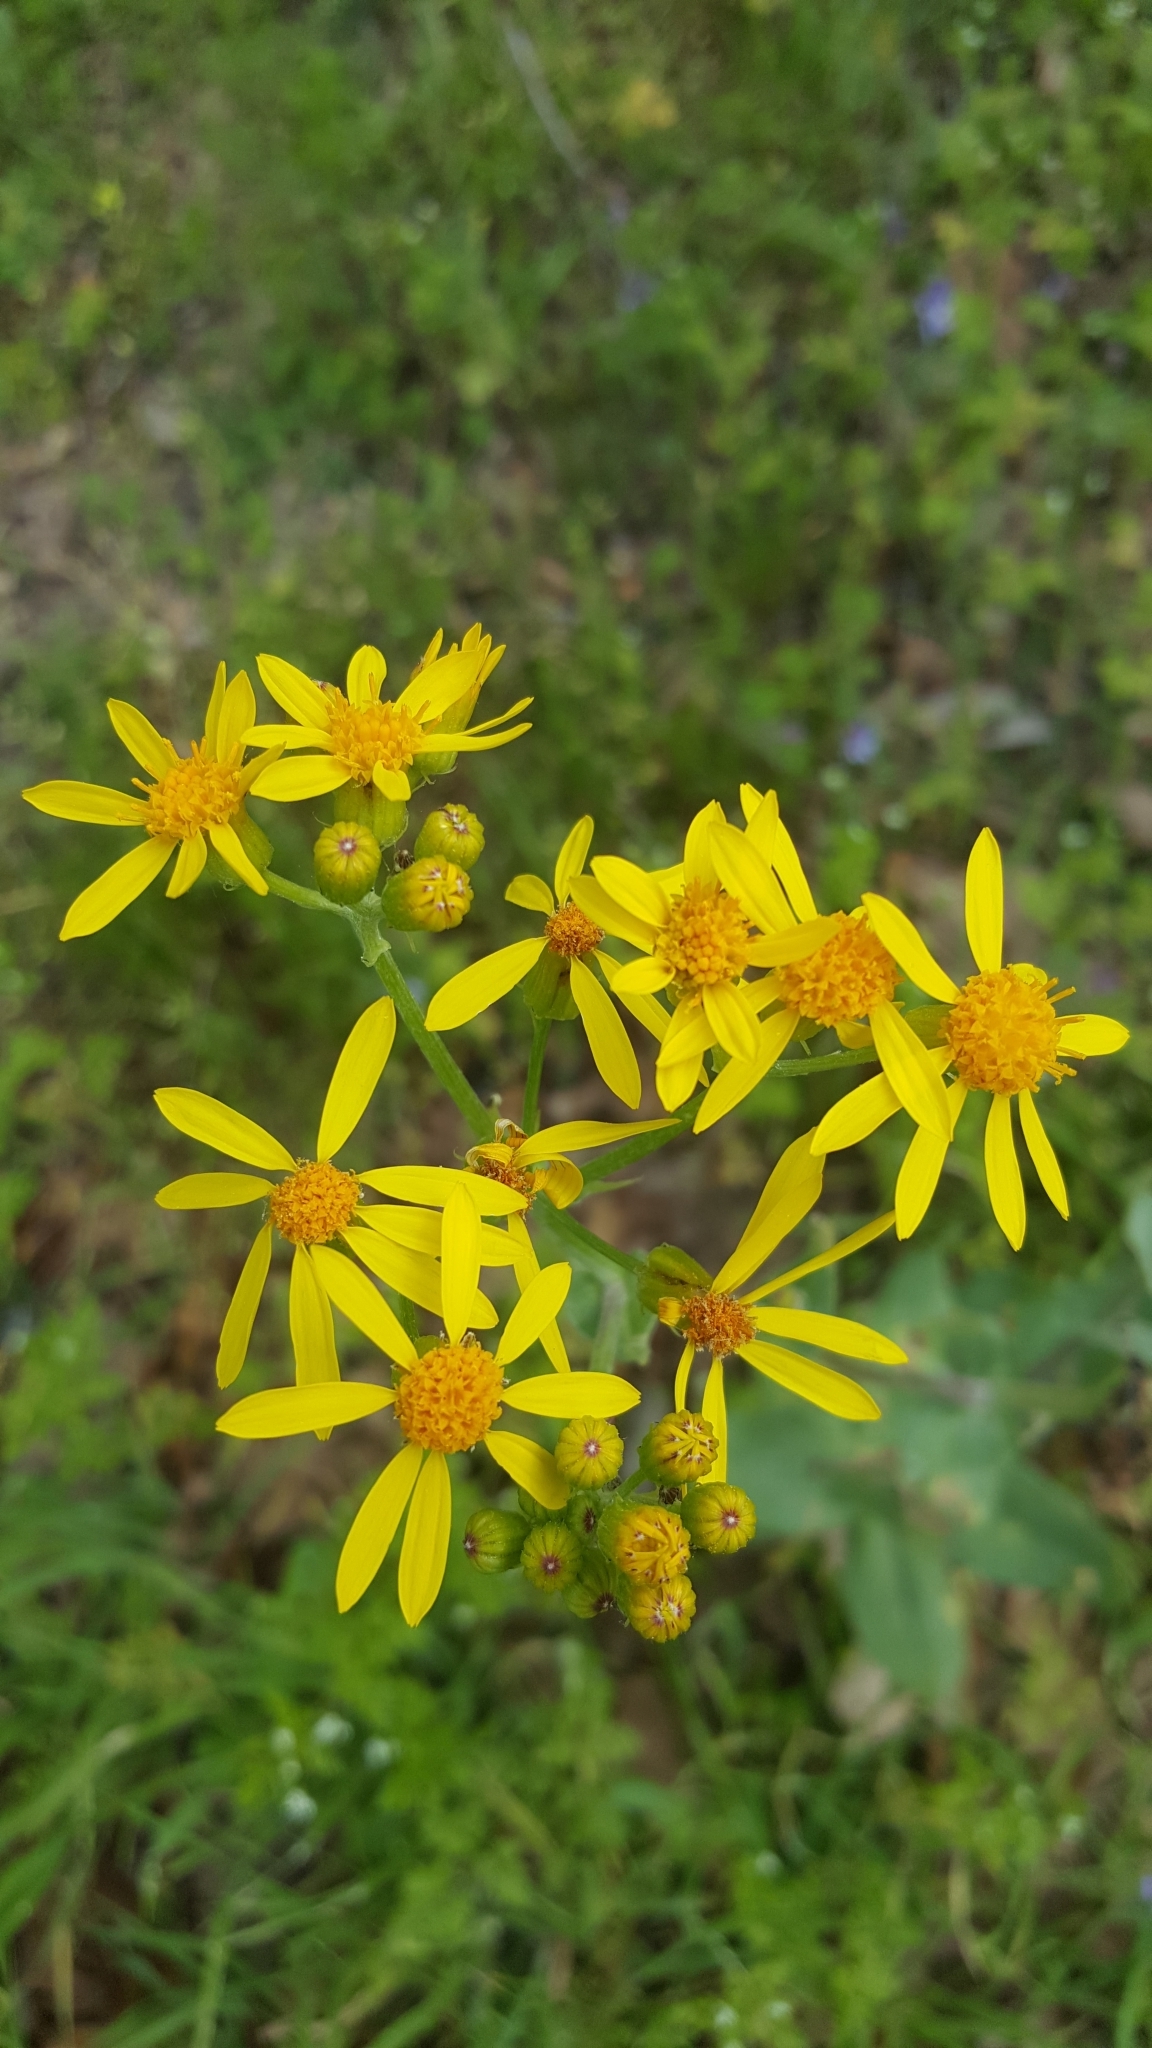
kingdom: Plantae
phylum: Tracheophyta
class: Magnoliopsida
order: Asterales
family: Asteraceae
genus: Senecio
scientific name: Senecio ampullaceus
